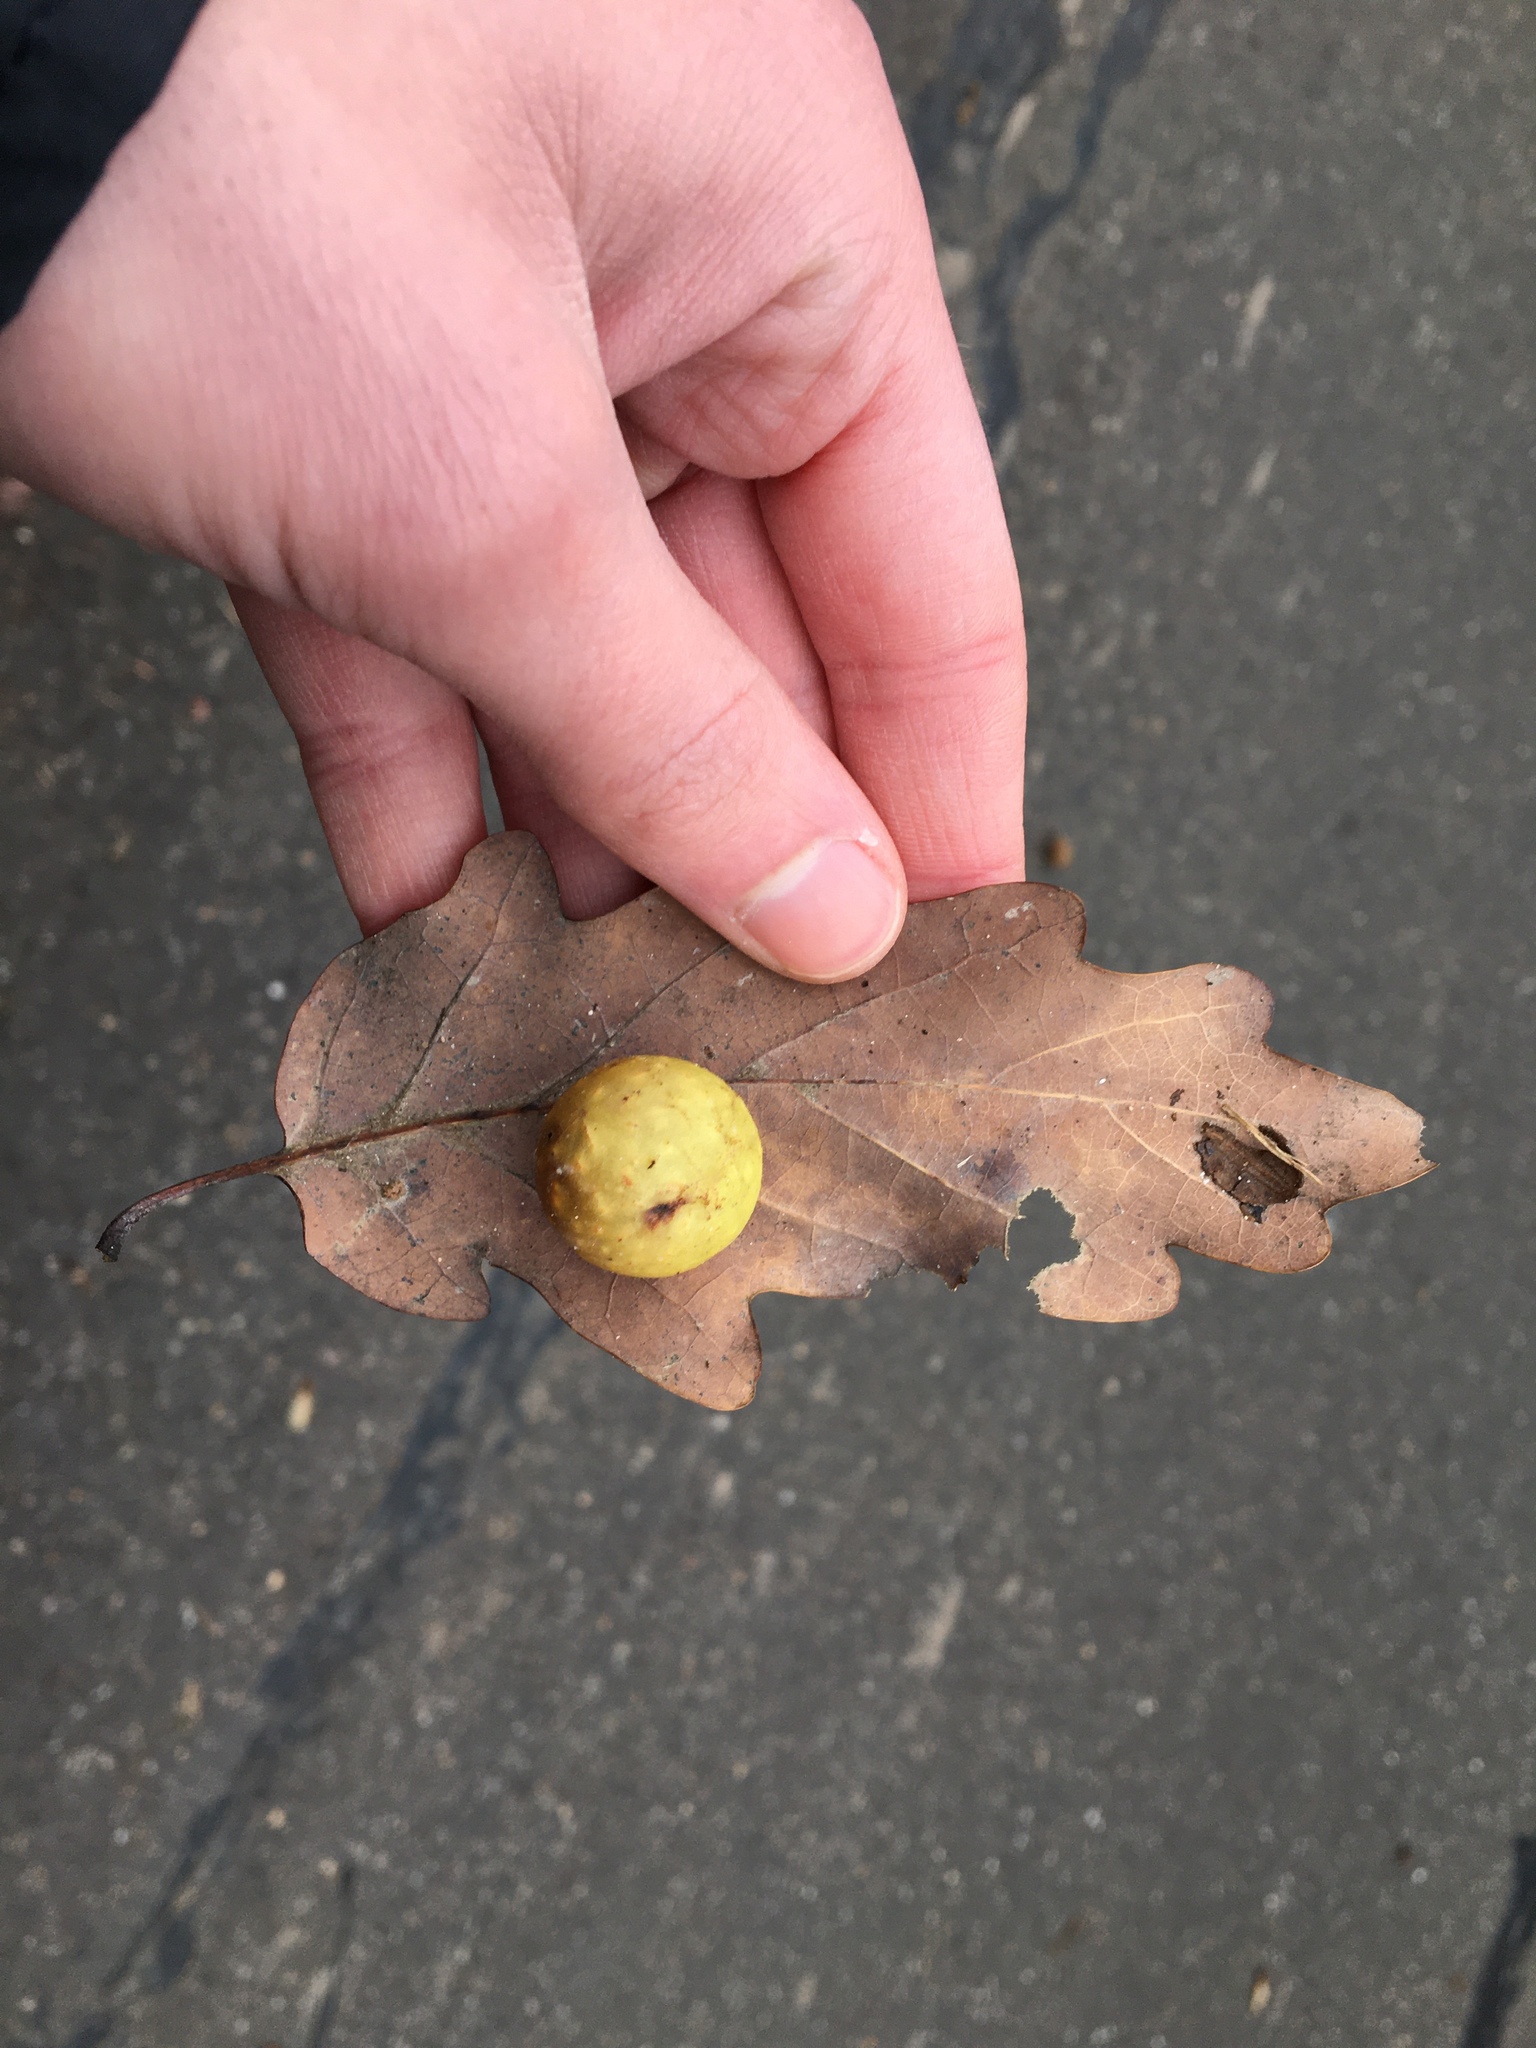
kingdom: Animalia
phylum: Arthropoda
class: Insecta
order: Hymenoptera
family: Cynipidae
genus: Cynips
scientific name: Cynips quercusfolii
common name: Cherry gall
